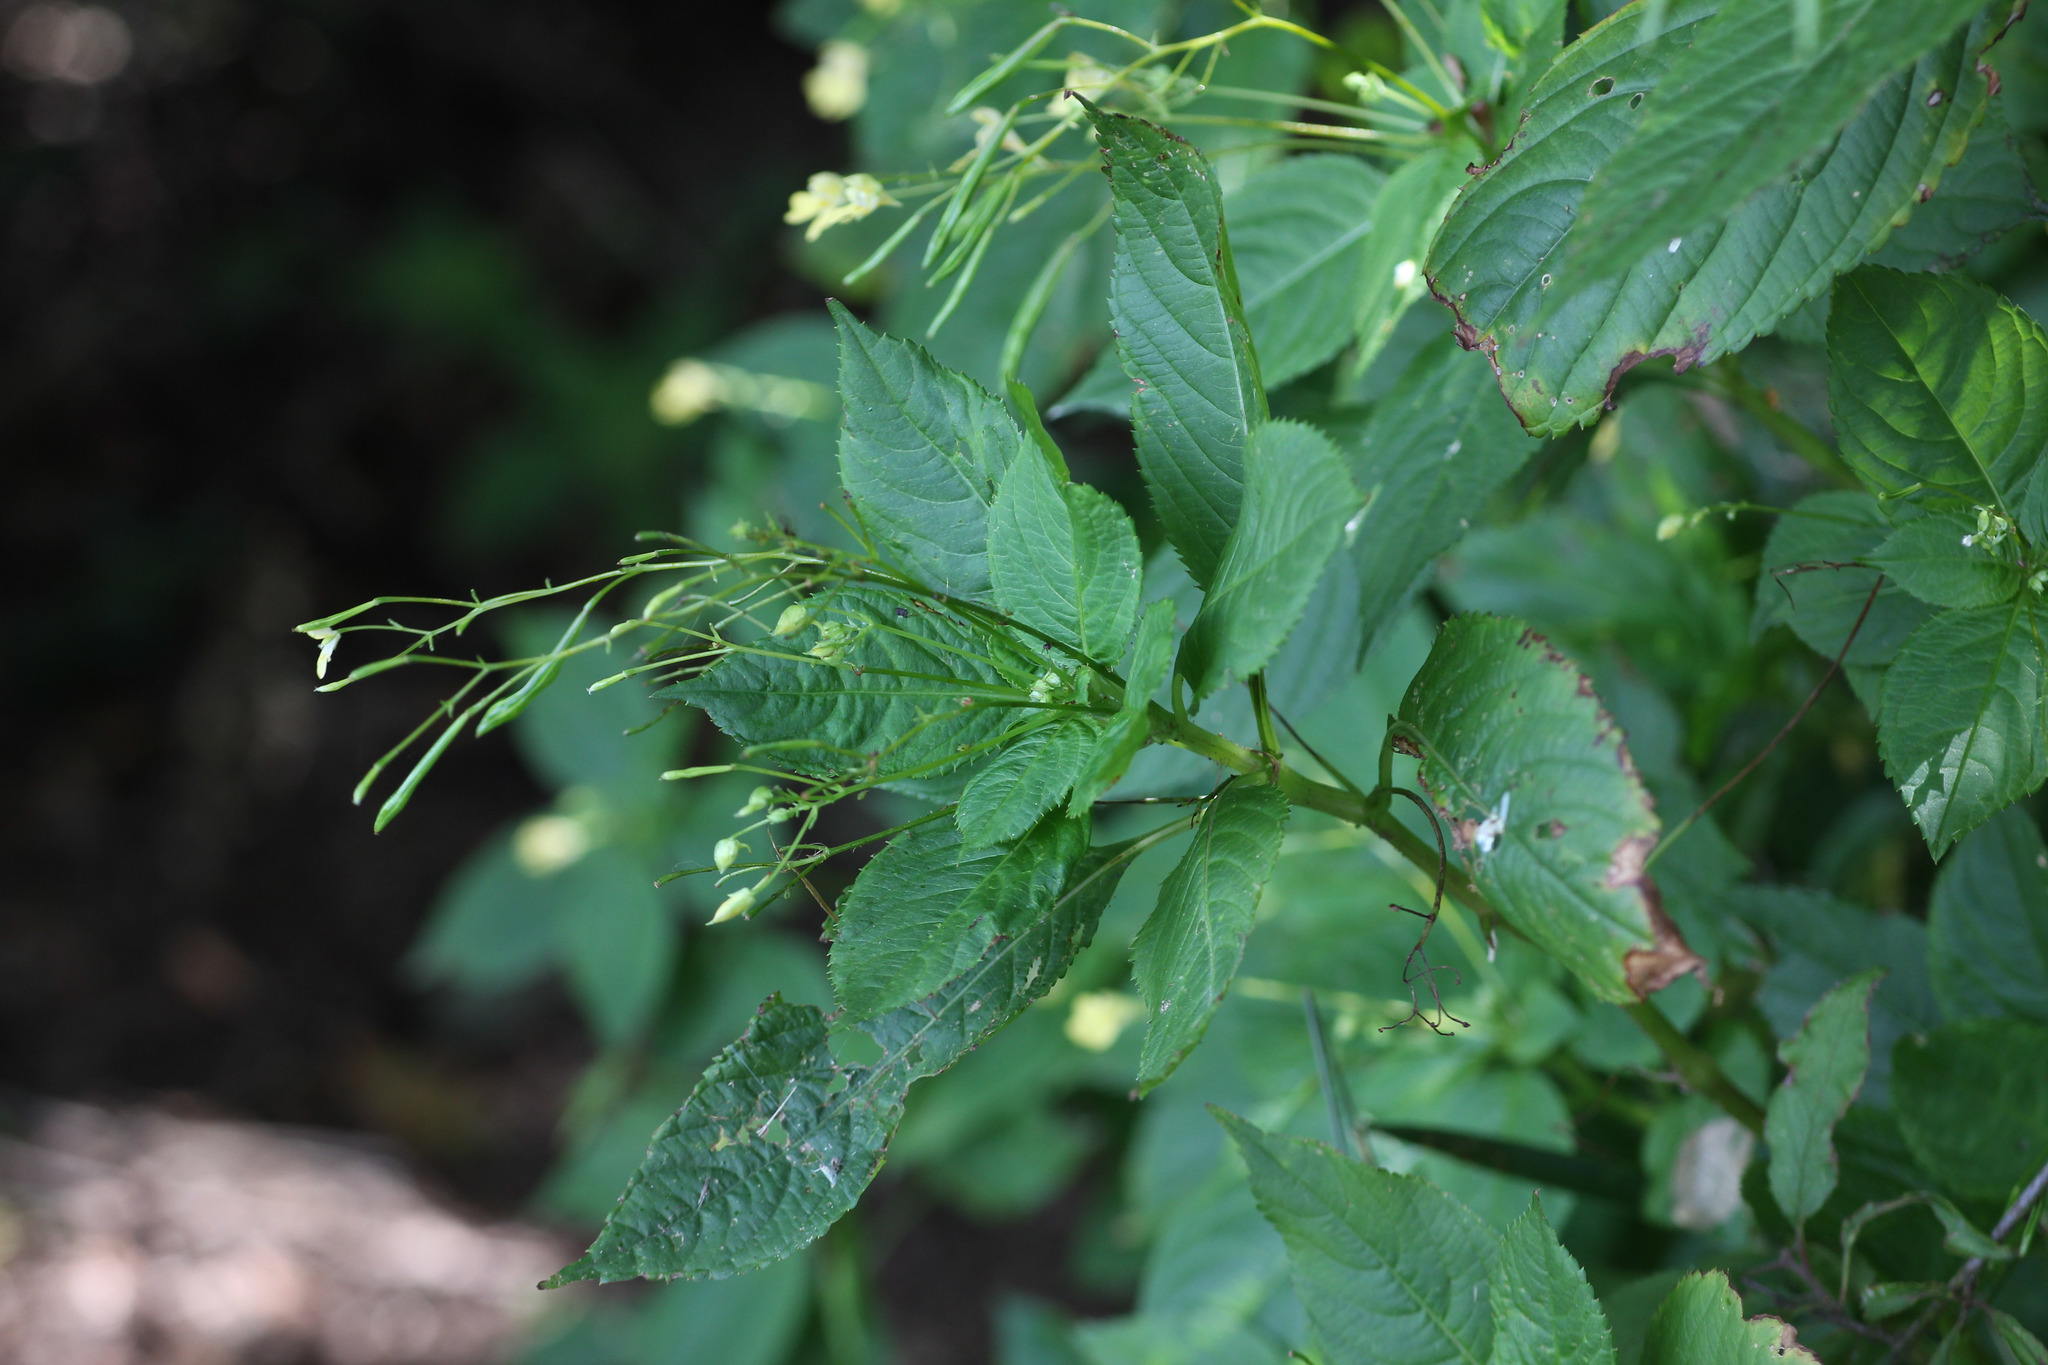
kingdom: Plantae
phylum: Tracheophyta
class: Magnoliopsida
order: Ericales
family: Balsaminaceae
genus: Impatiens
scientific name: Impatiens parviflora
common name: Small balsam
